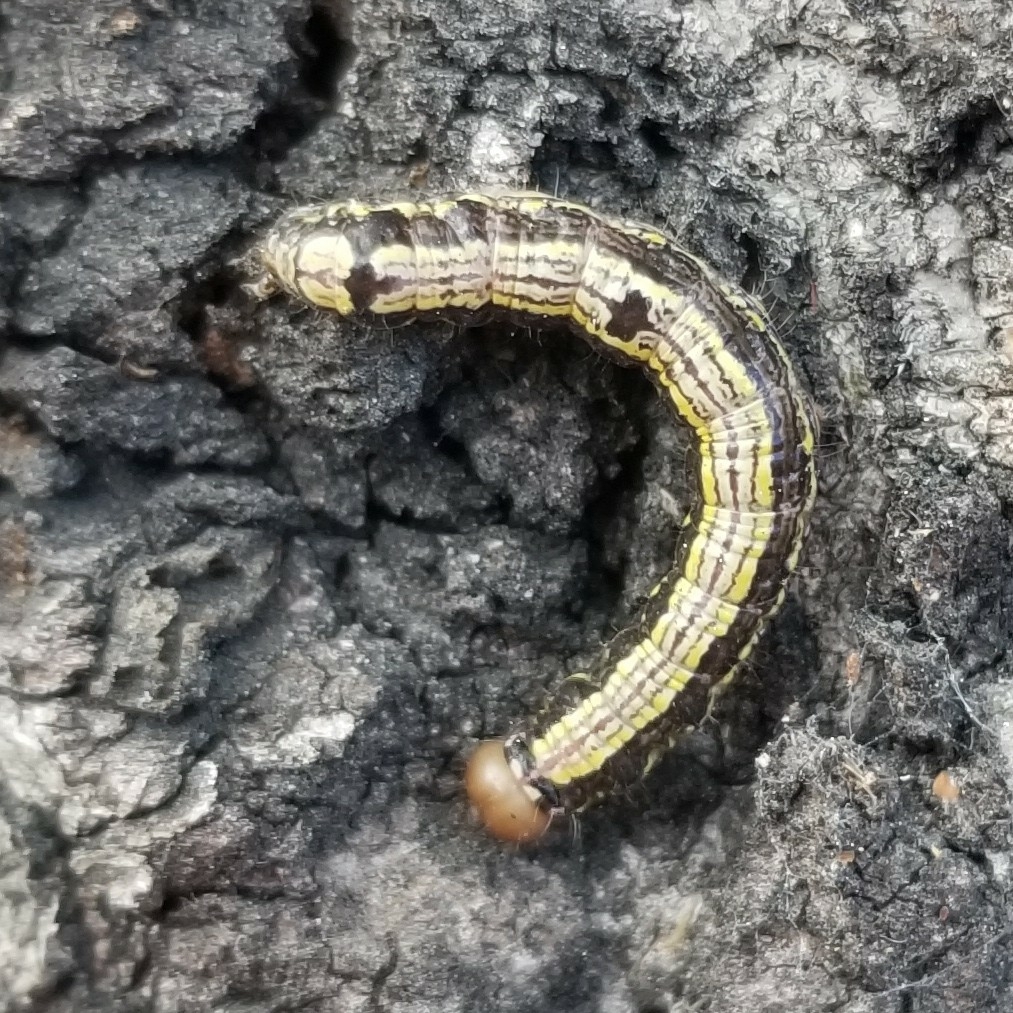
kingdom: Animalia
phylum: Arthropoda
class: Insecta
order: Lepidoptera
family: Notodontidae
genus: Phryganidia
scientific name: Phryganidia californica
